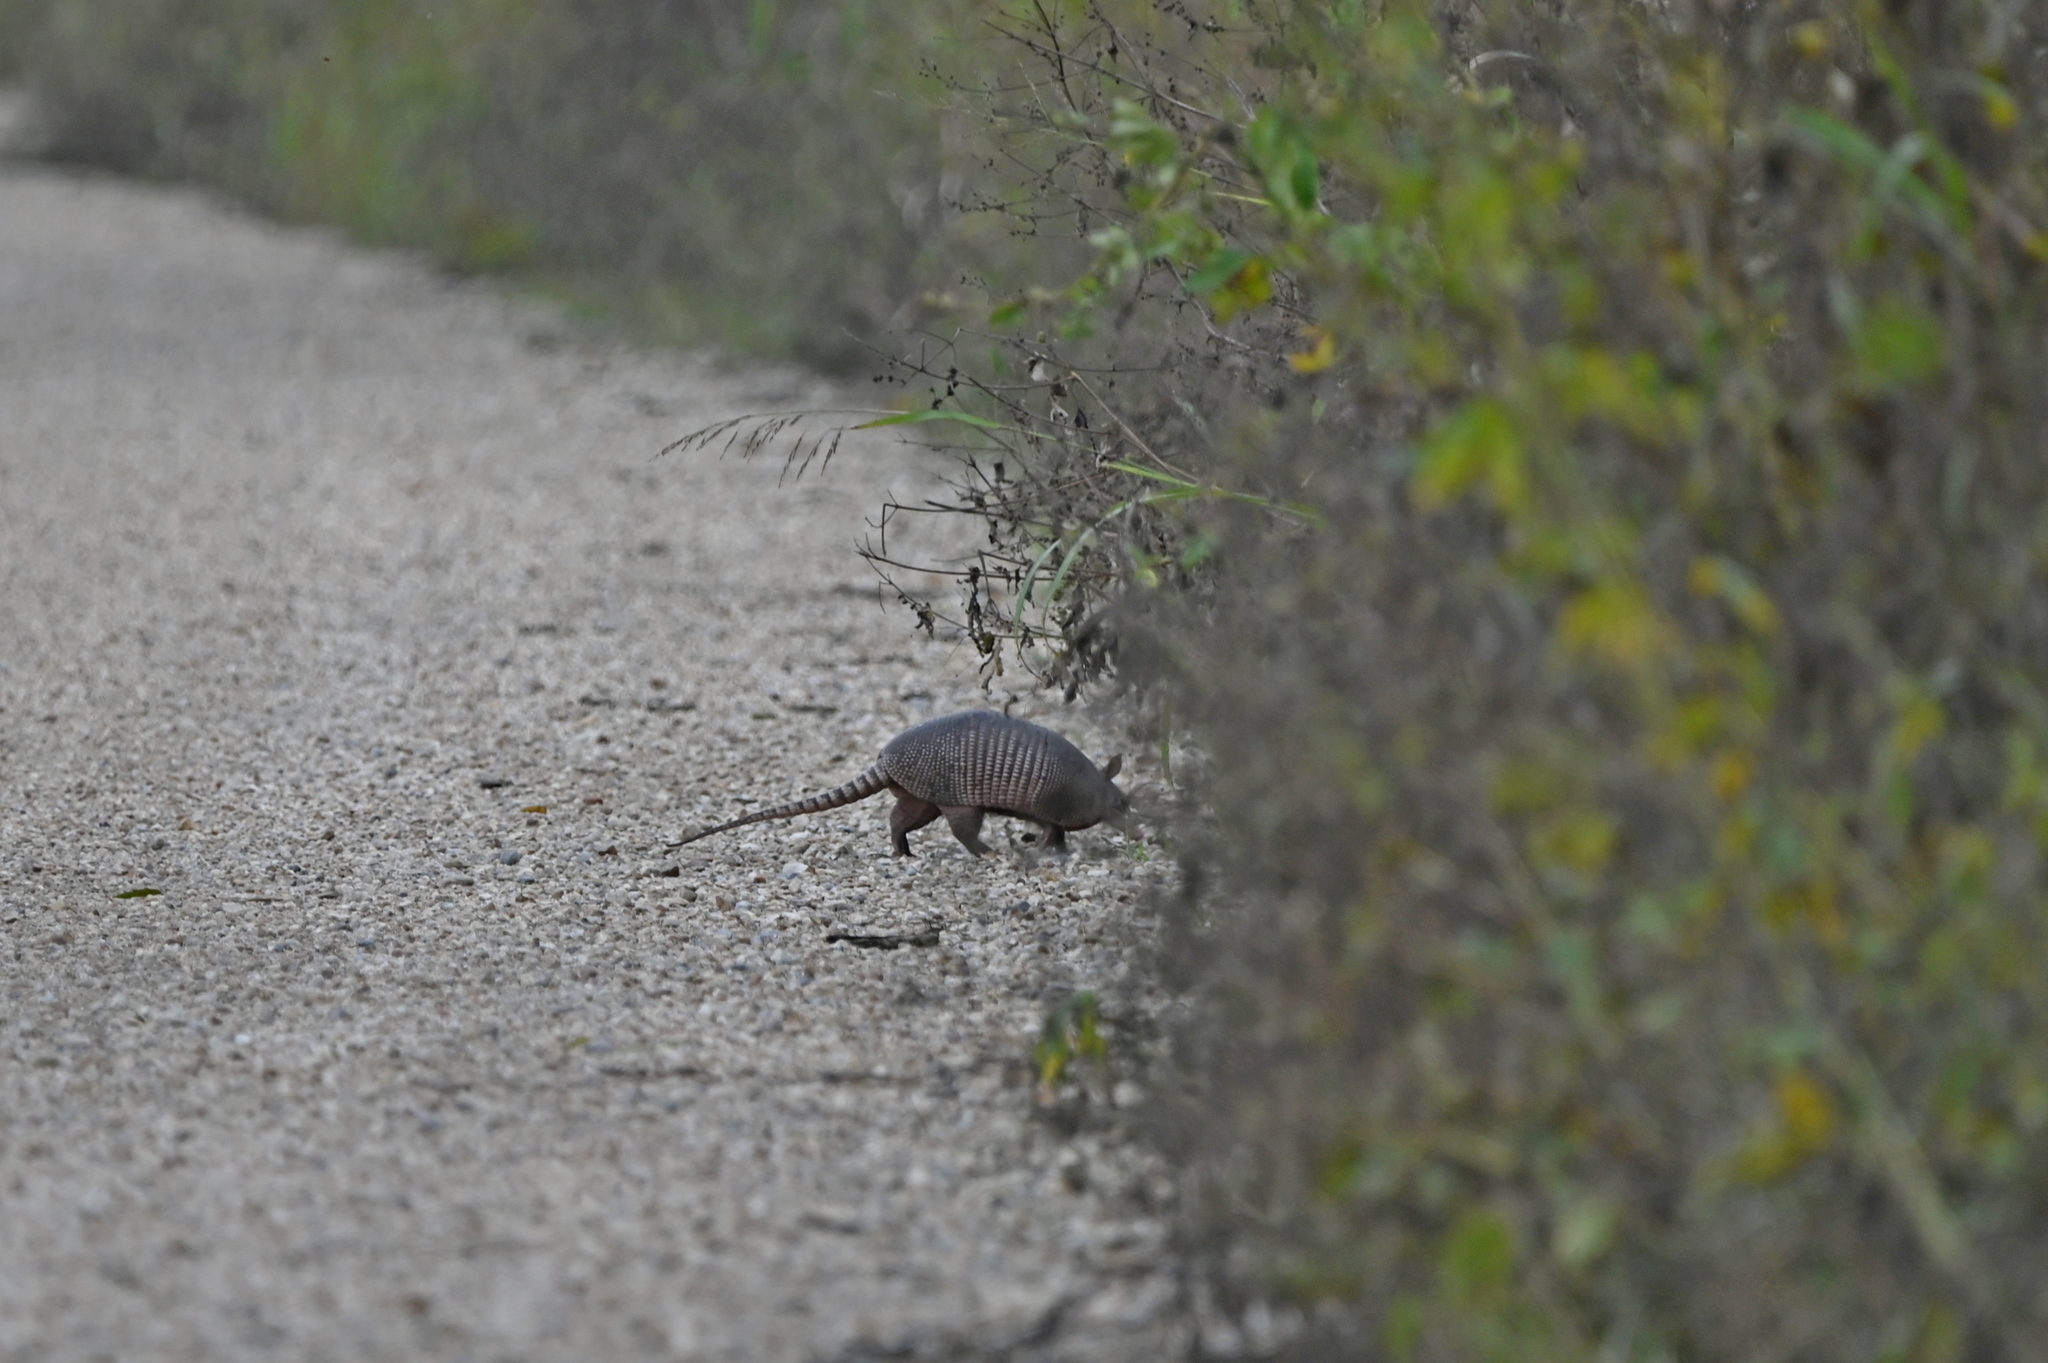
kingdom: Animalia
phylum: Chordata
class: Mammalia
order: Cingulata
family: Dasypodidae
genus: Dasypus
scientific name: Dasypus novemcinctus
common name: Nine-banded armadillo
